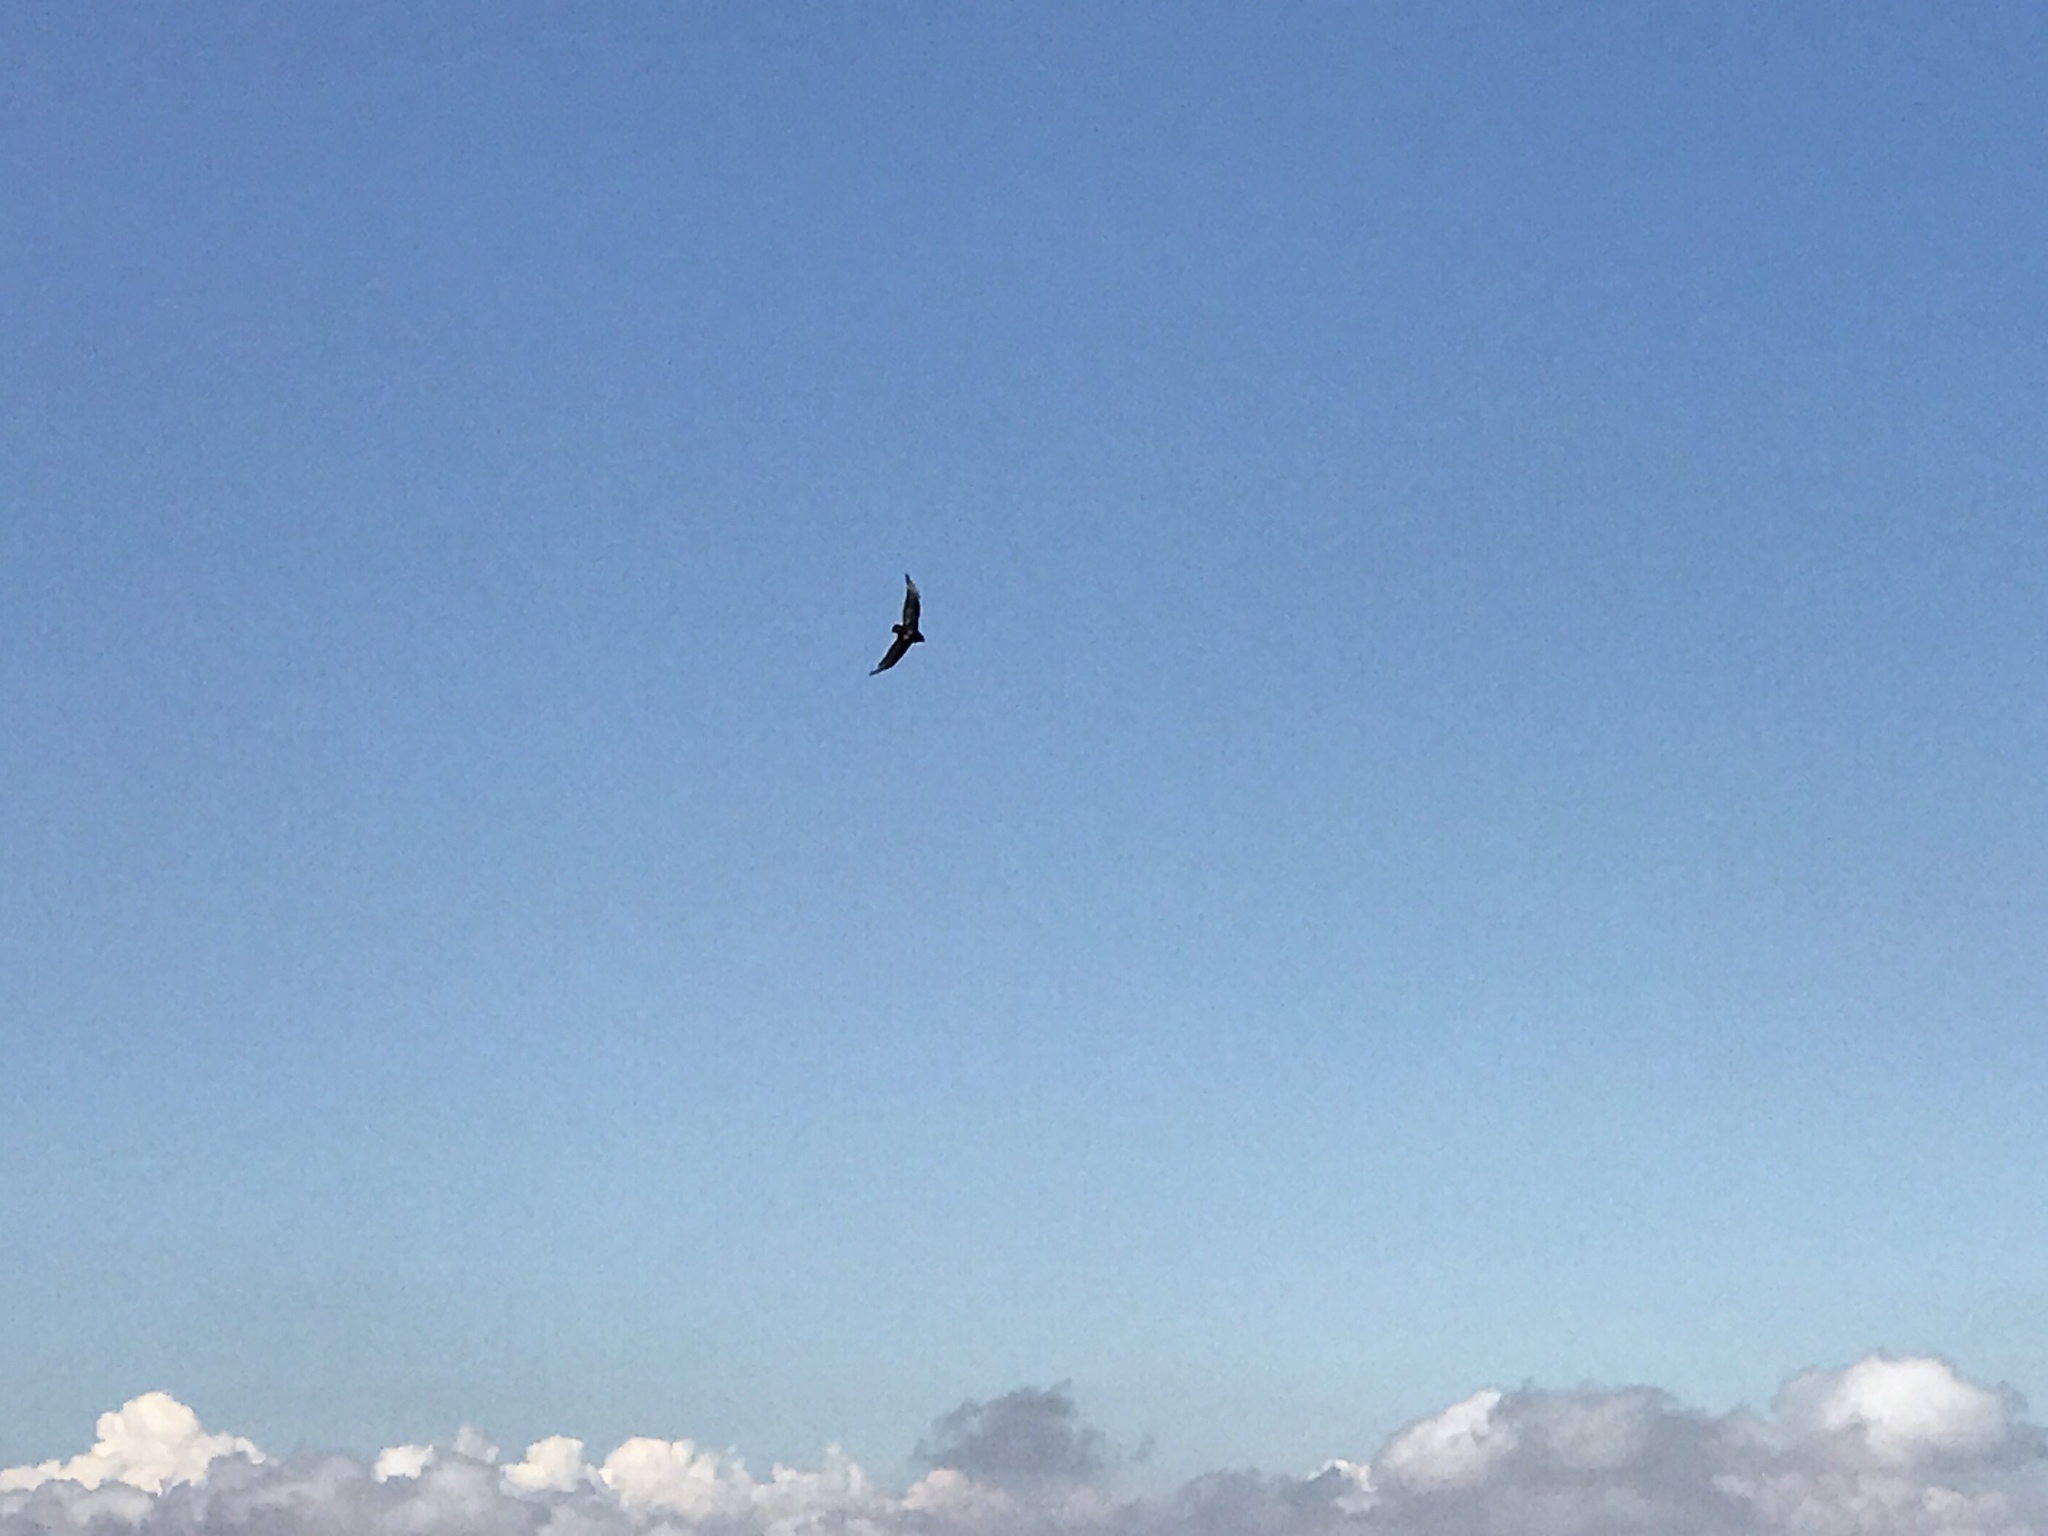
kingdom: Animalia
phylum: Chordata
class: Aves
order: Accipitriformes
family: Cathartidae
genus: Cathartes
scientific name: Cathartes aura
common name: Turkey vulture
